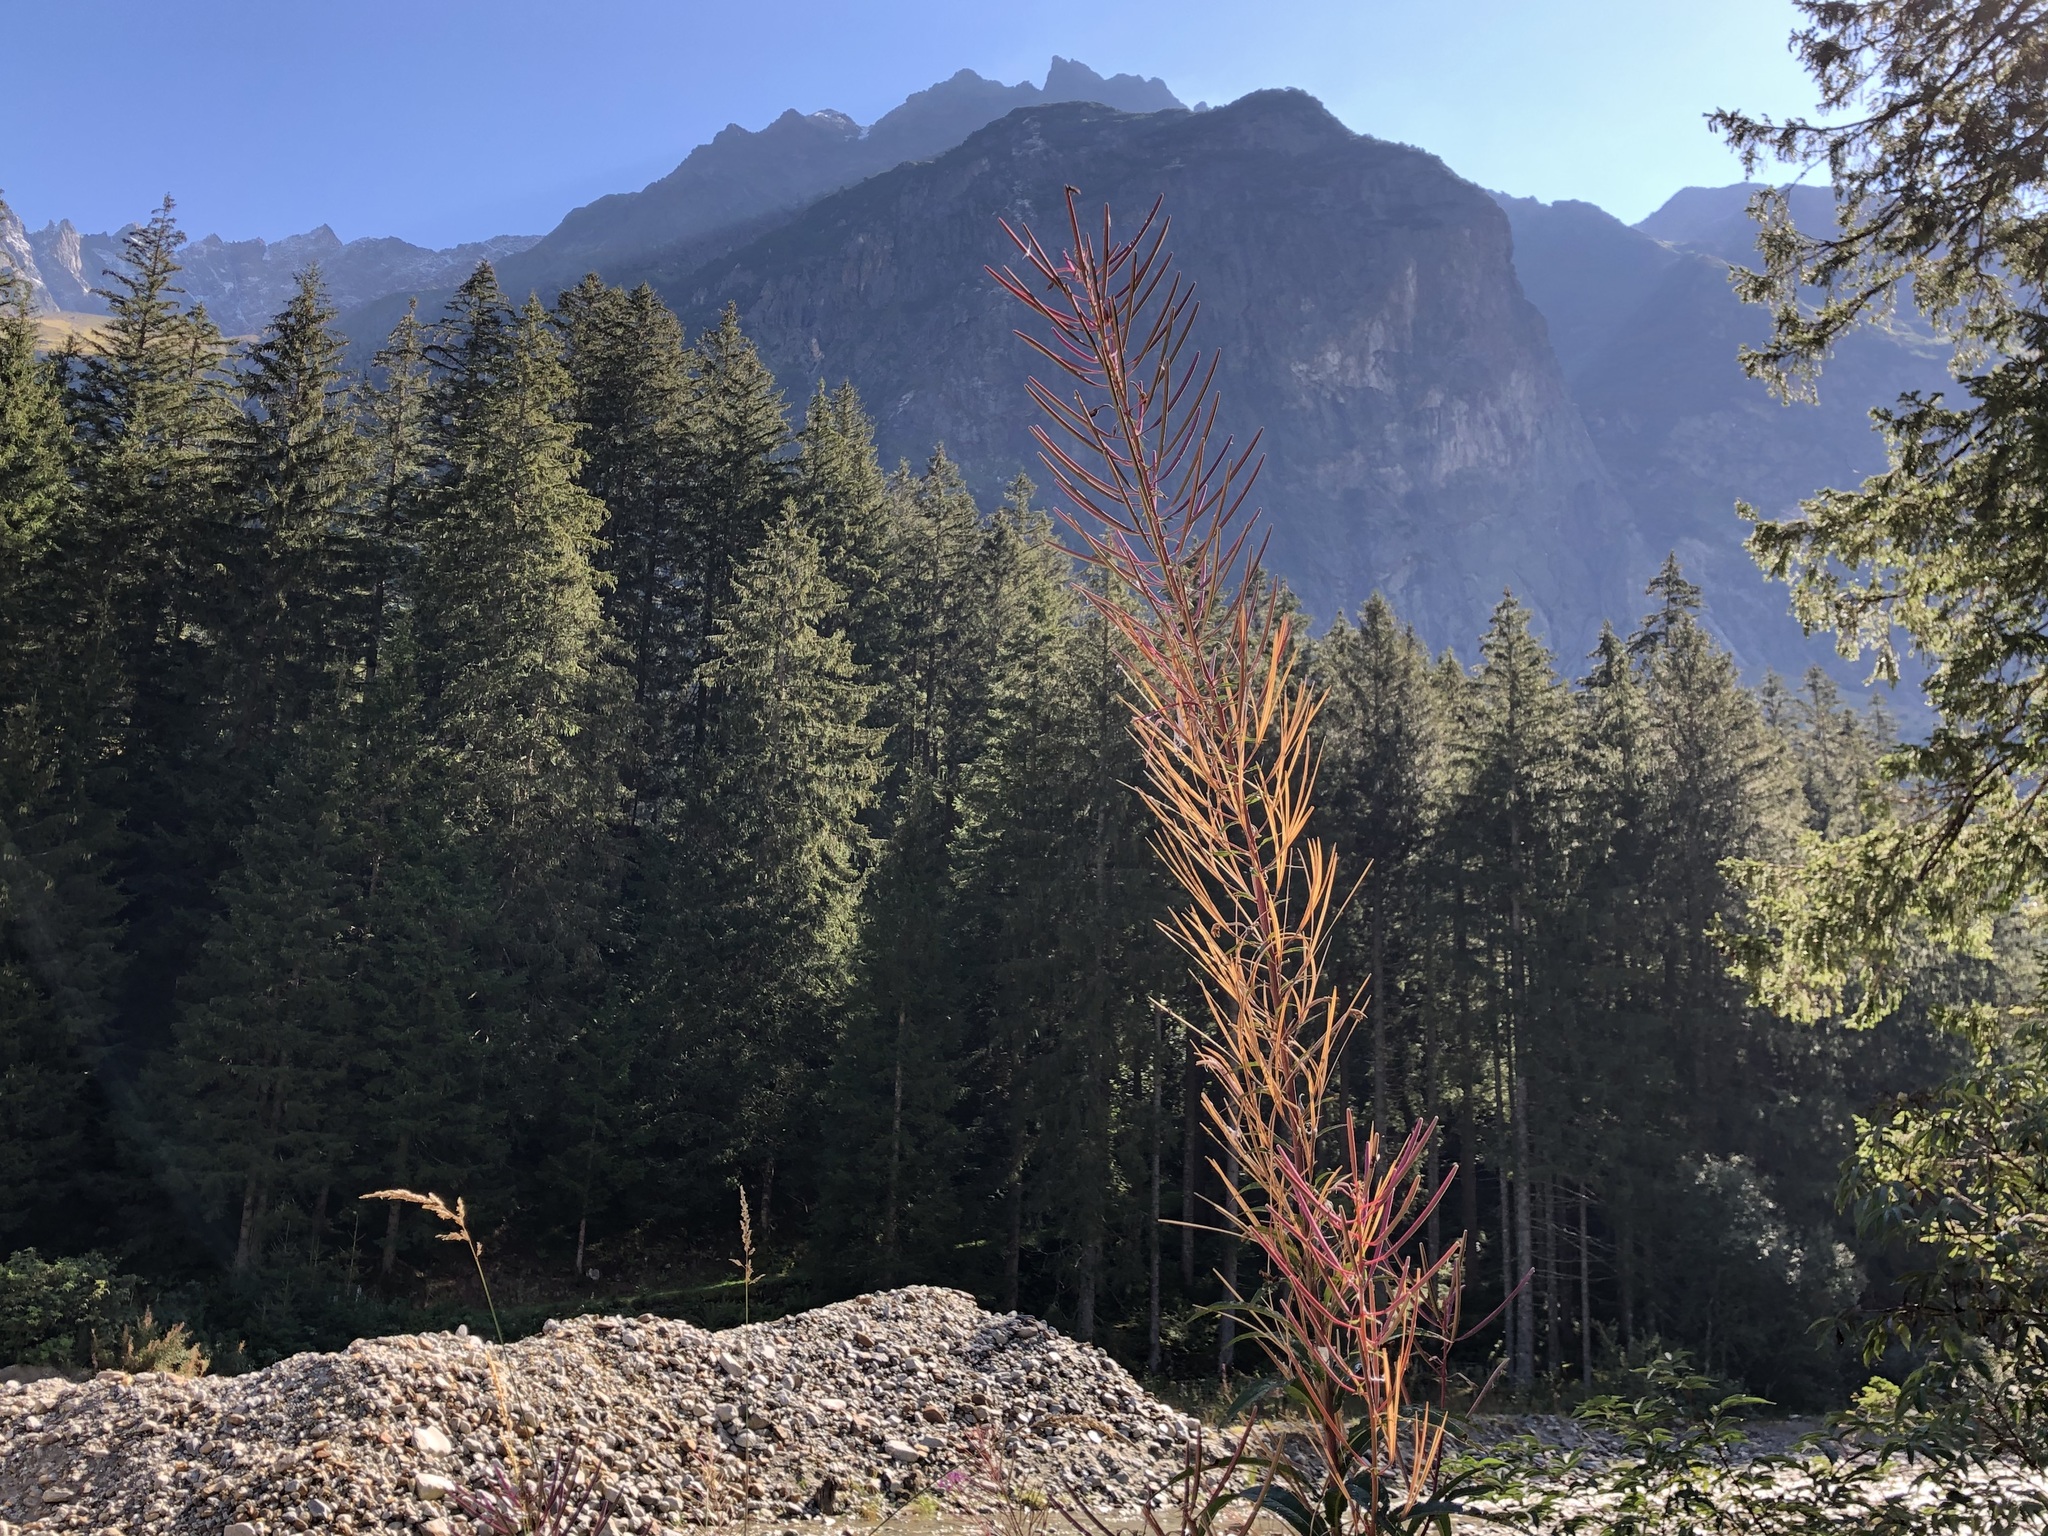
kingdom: Plantae
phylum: Tracheophyta
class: Magnoliopsida
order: Myrtales
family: Onagraceae
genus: Chamaenerion
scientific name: Chamaenerion angustifolium
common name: Fireweed
